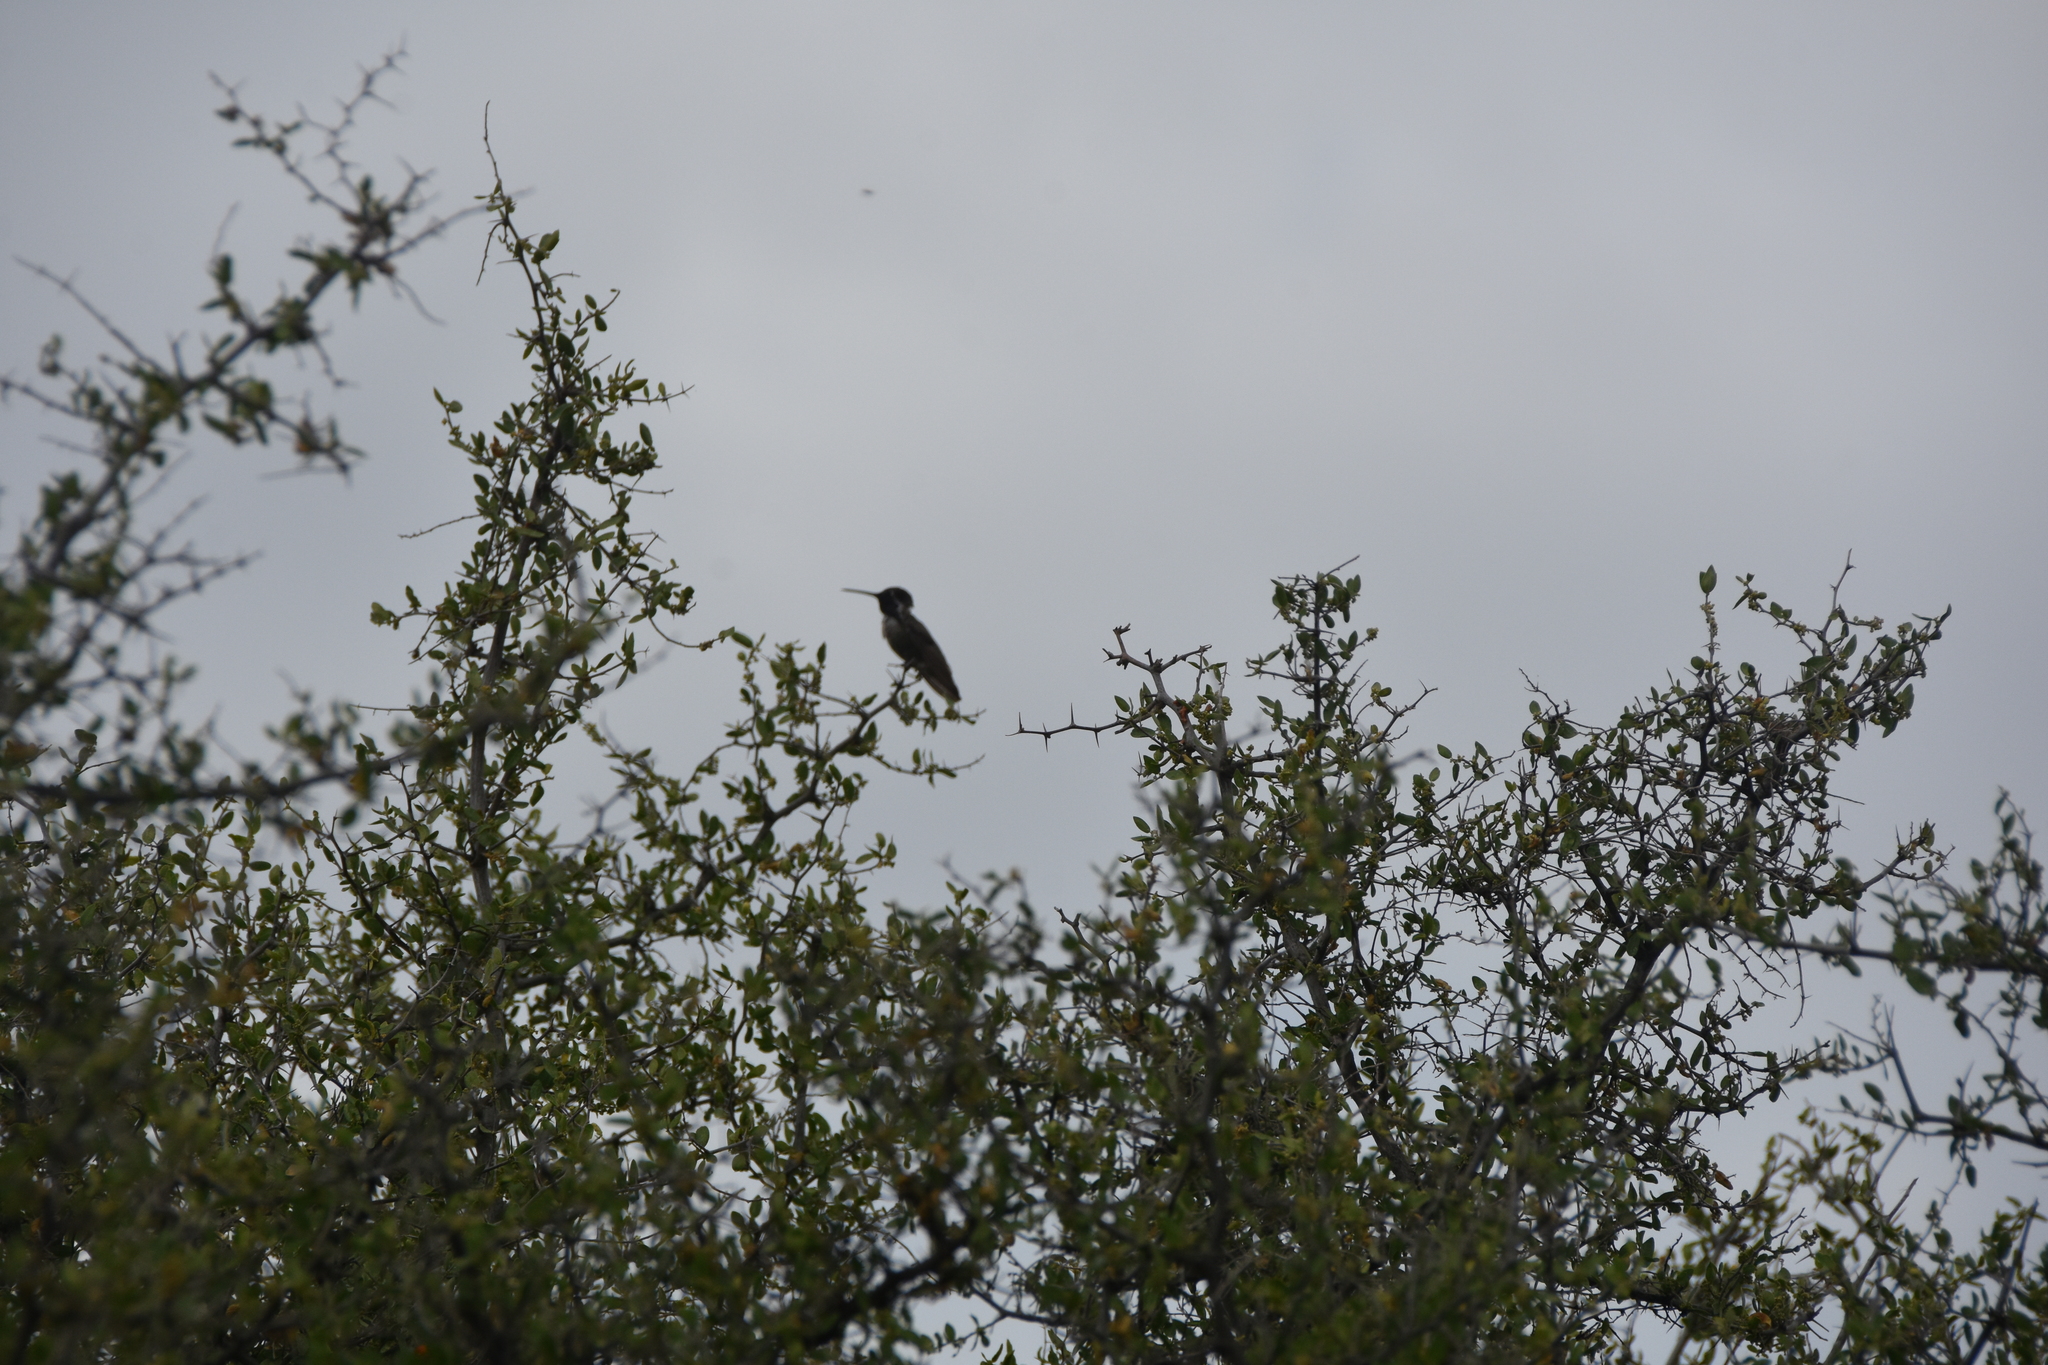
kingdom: Animalia
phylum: Chordata
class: Aves
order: Apodiformes
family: Trochilidae
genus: Calypte
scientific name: Calypte costae
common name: Costa's hummingbird
